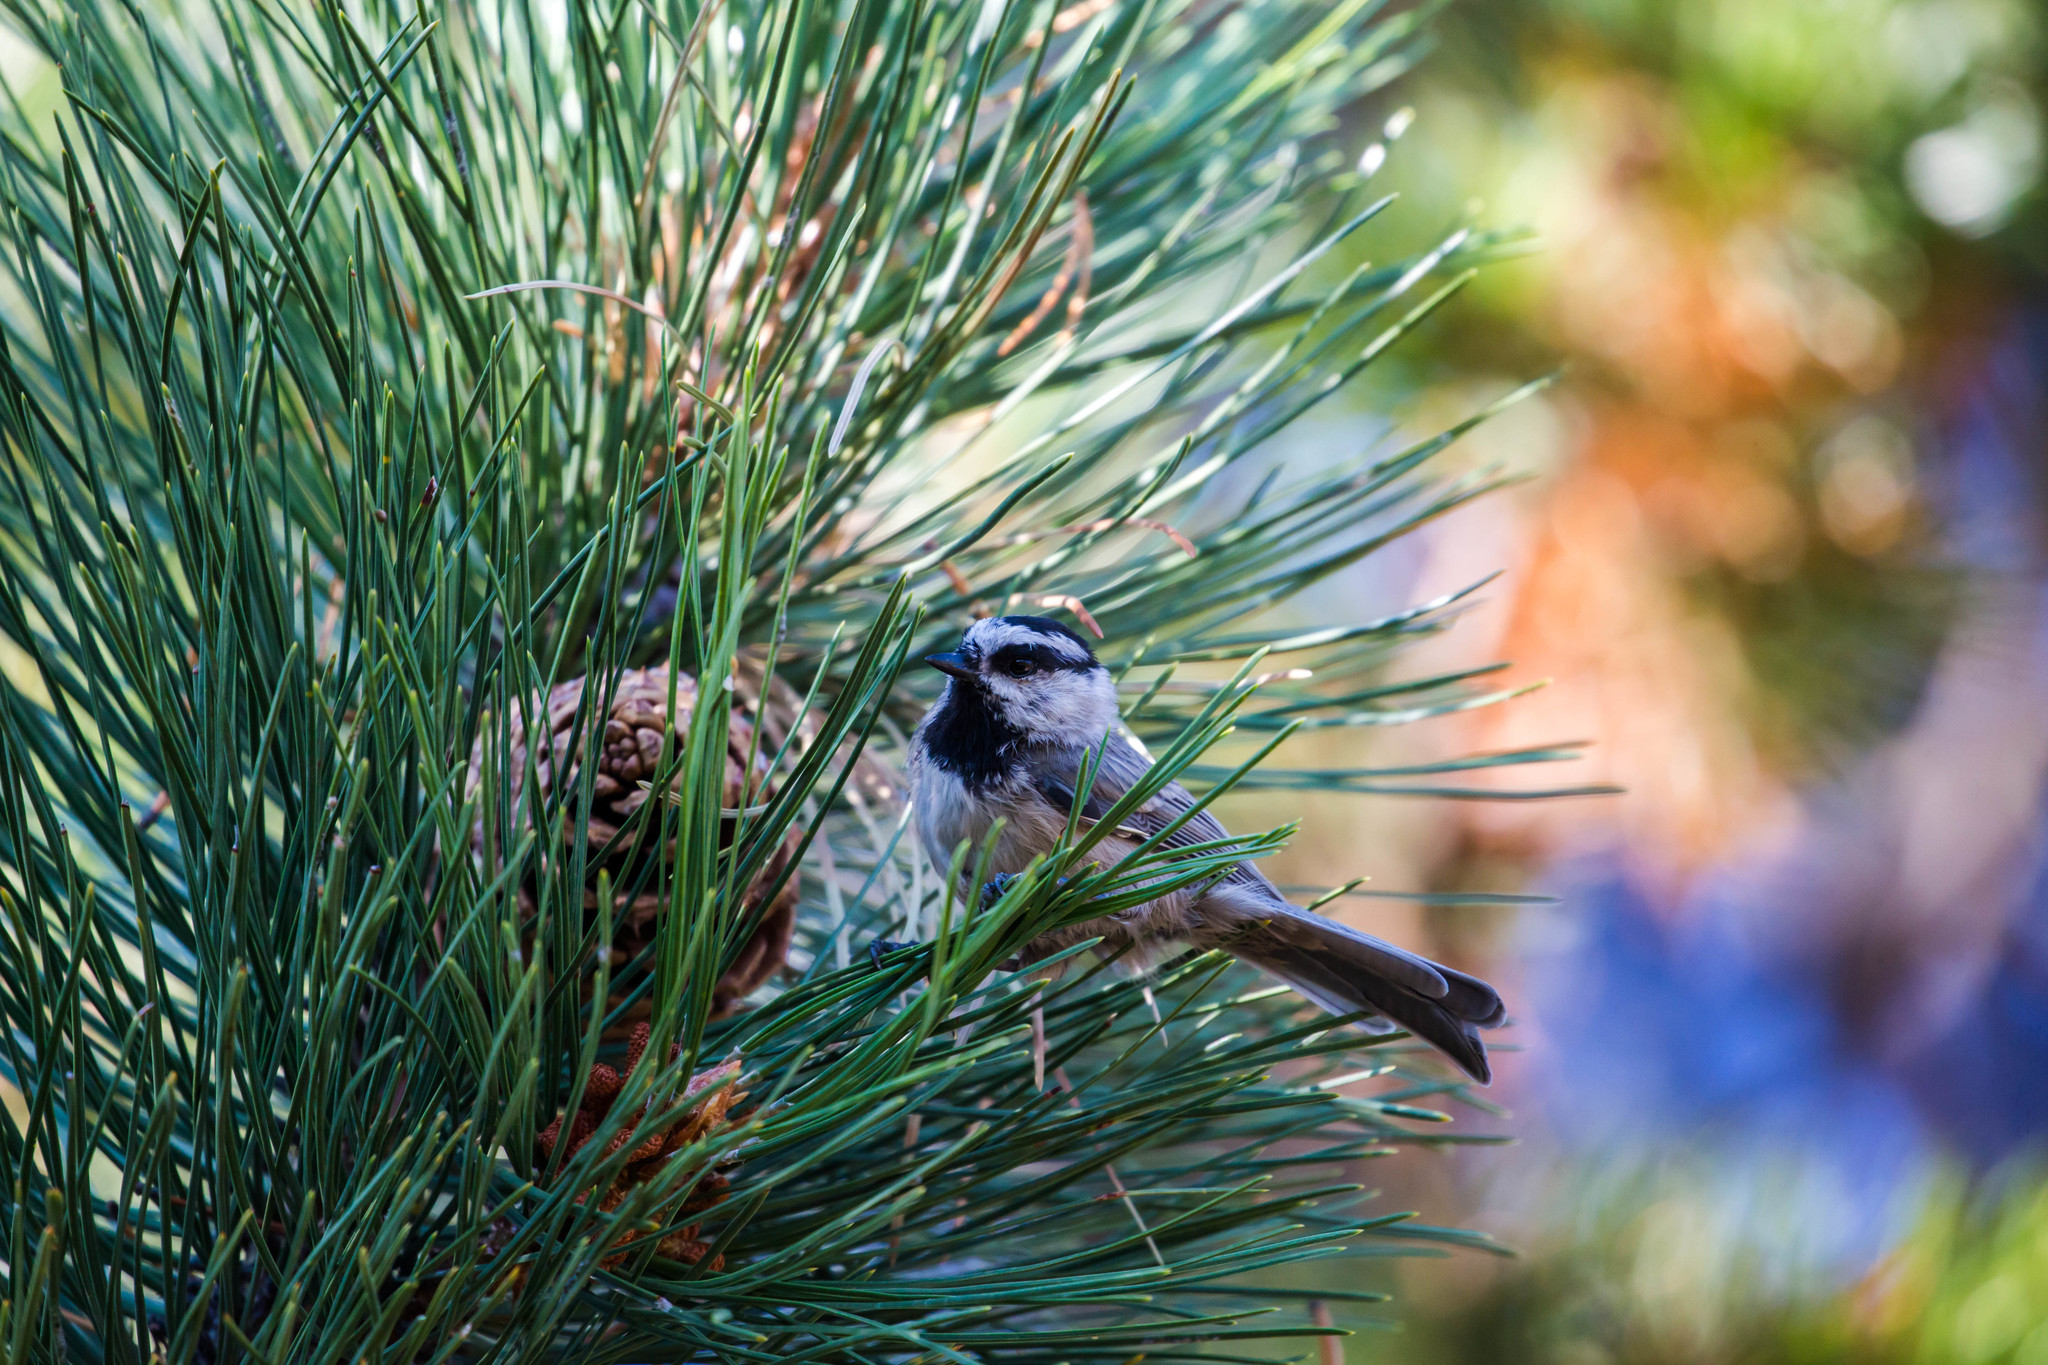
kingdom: Animalia
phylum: Chordata
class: Aves
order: Passeriformes
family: Paridae
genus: Poecile
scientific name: Poecile gambeli
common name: Mountain chickadee
